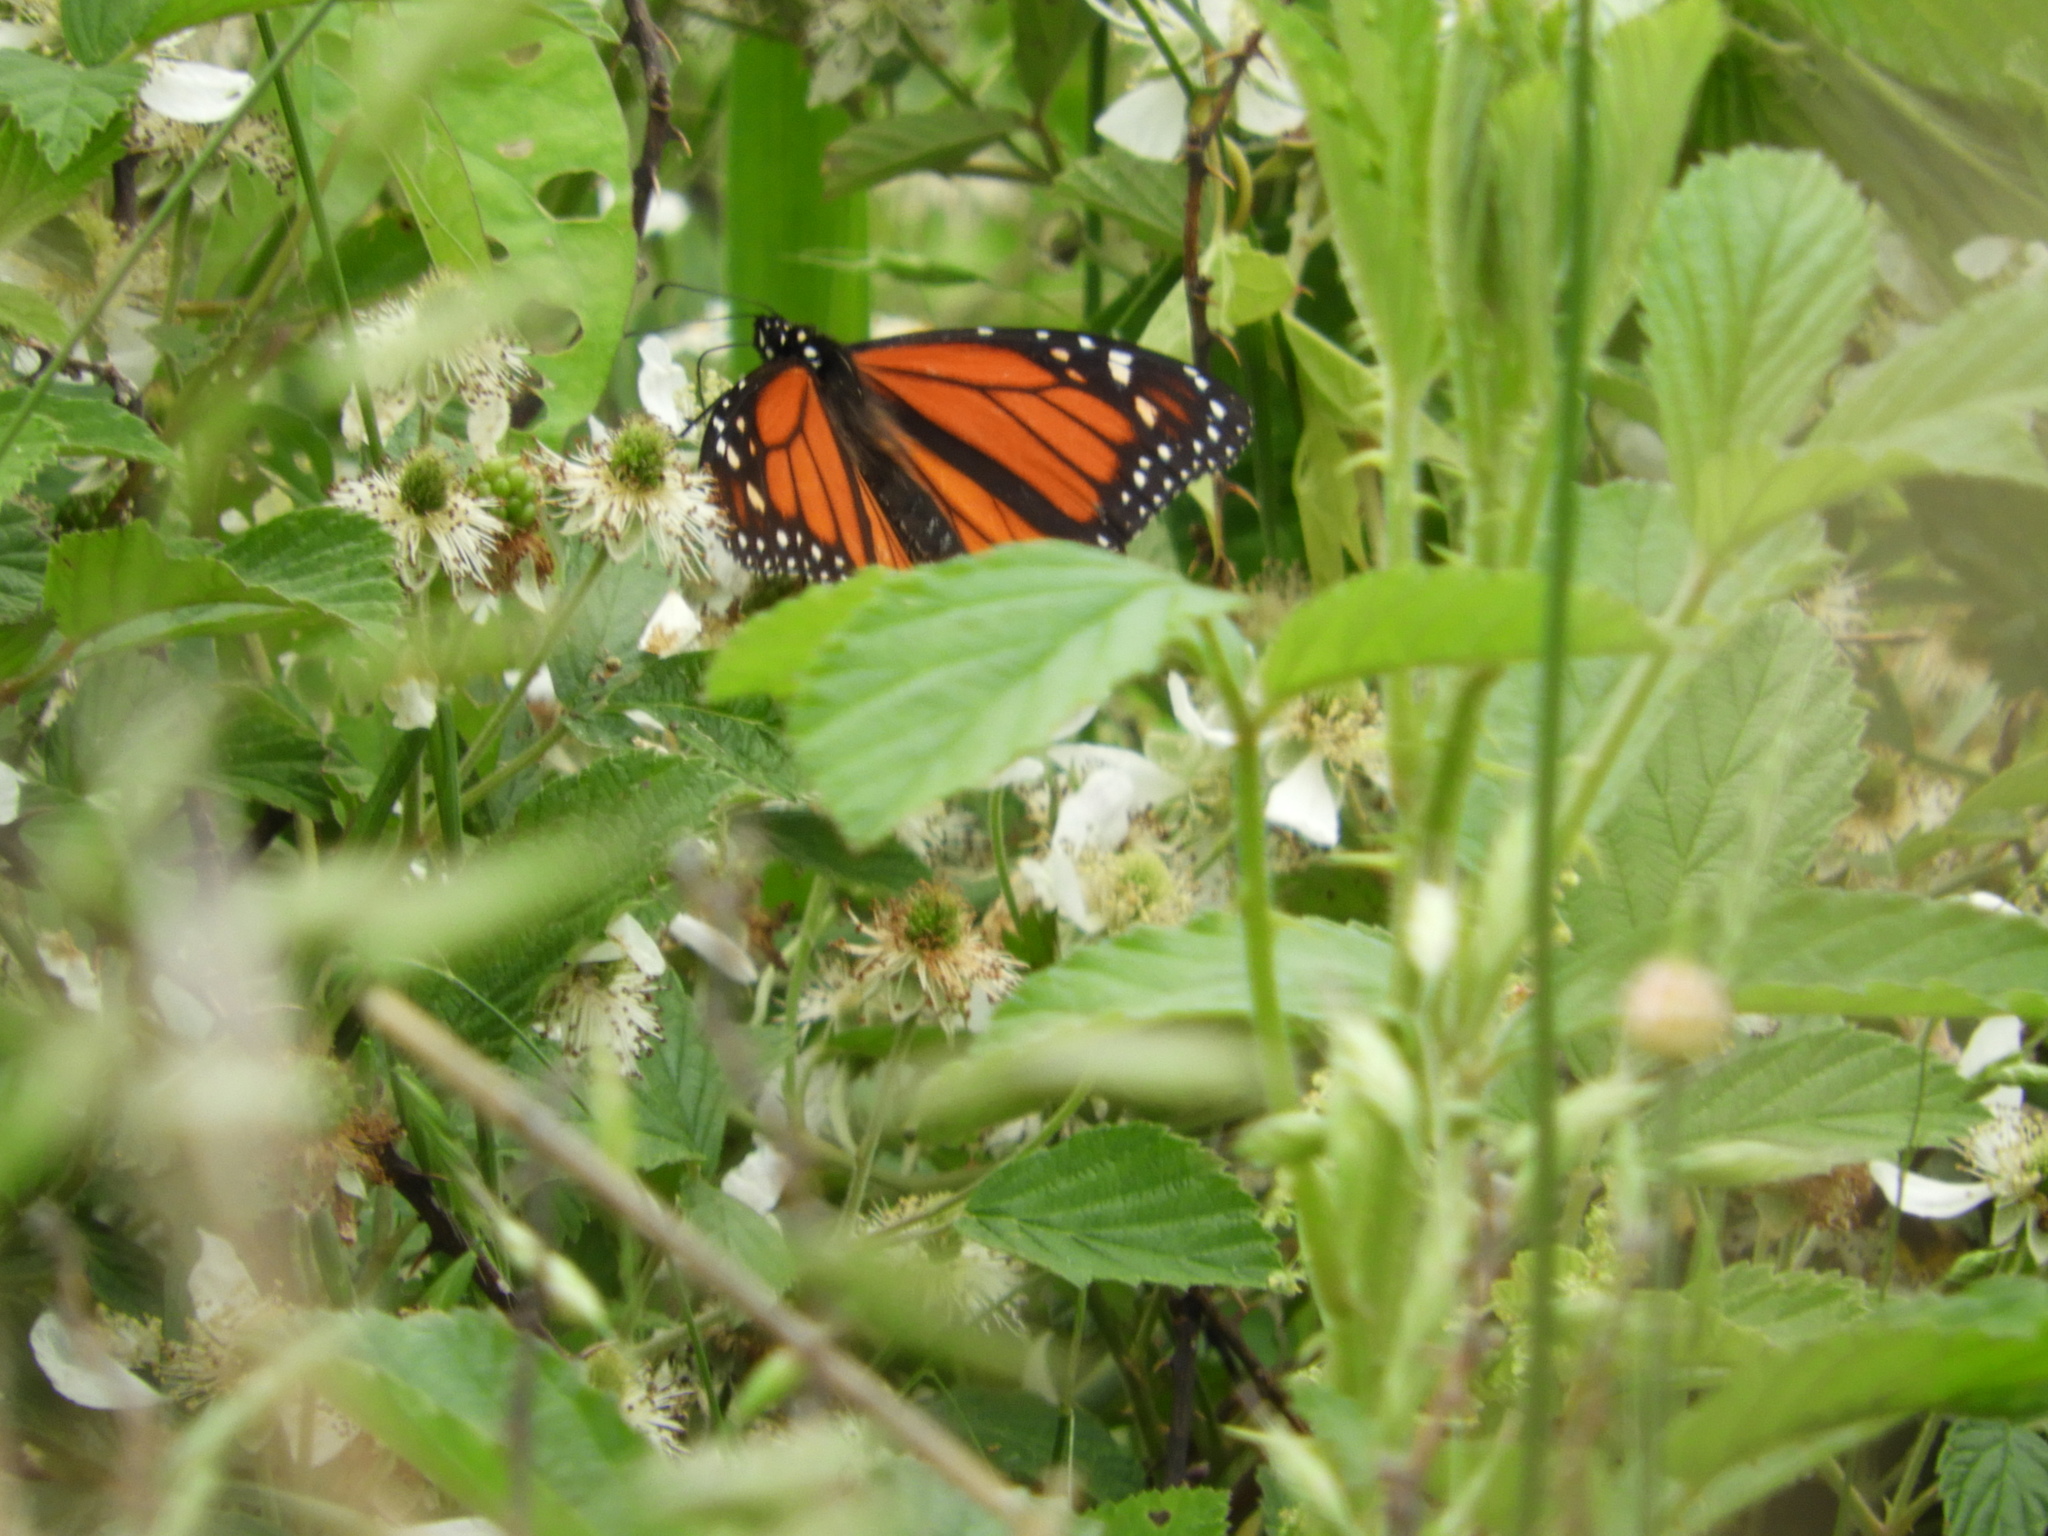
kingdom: Animalia
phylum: Arthropoda
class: Insecta
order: Lepidoptera
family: Nymphalidae
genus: Danaus
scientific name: Danaus plexippus
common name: Monarch
